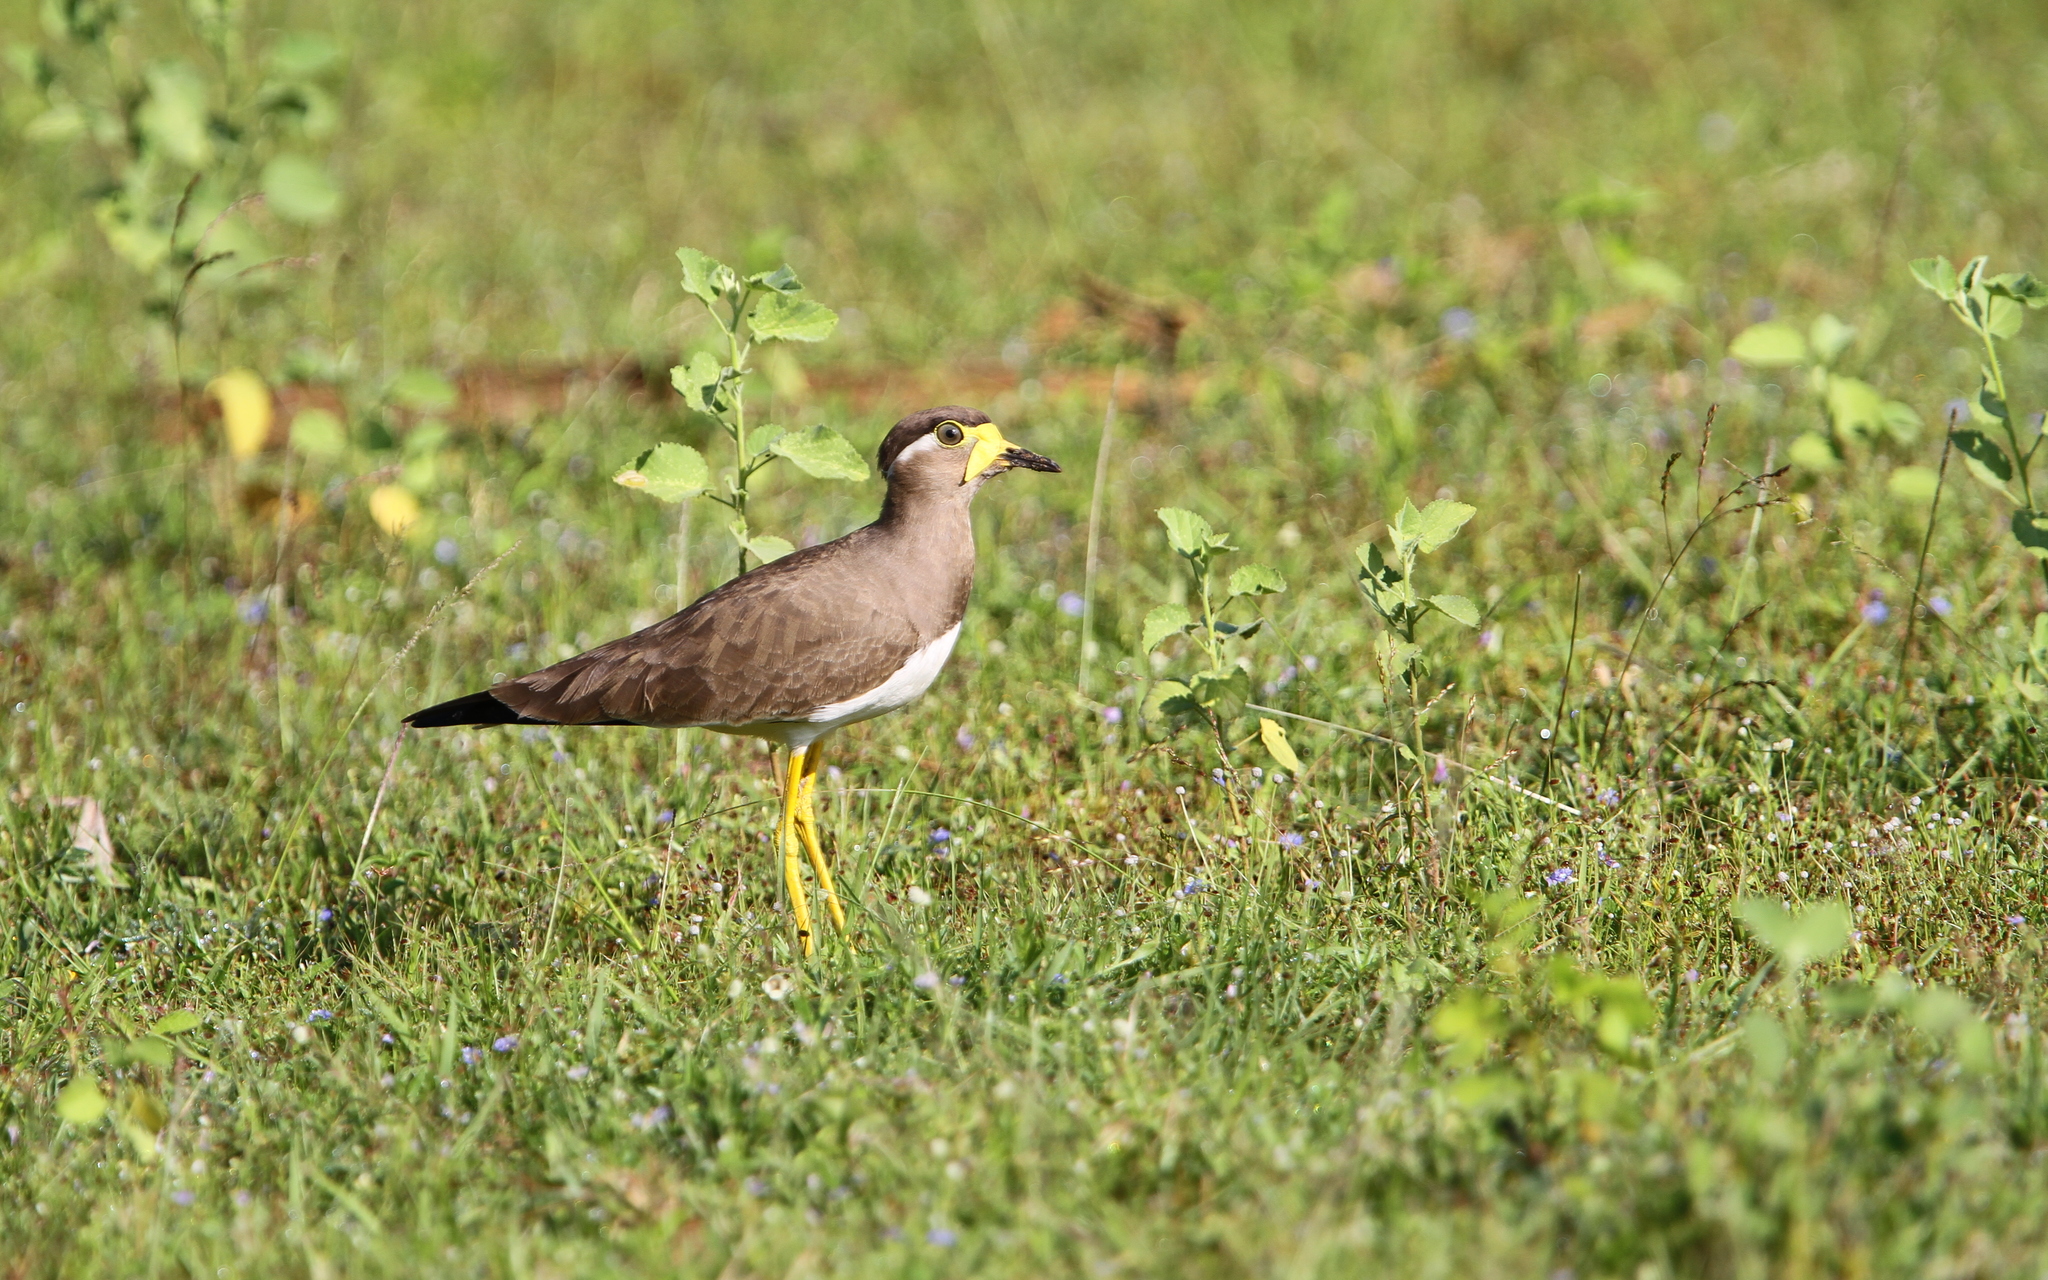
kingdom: Animalia
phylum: Chordata
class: Aves
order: Charadriiformes
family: Charadriidae
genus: Vanellus
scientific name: Vanellus malabaricus
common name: Yellow-wattled lapwing
